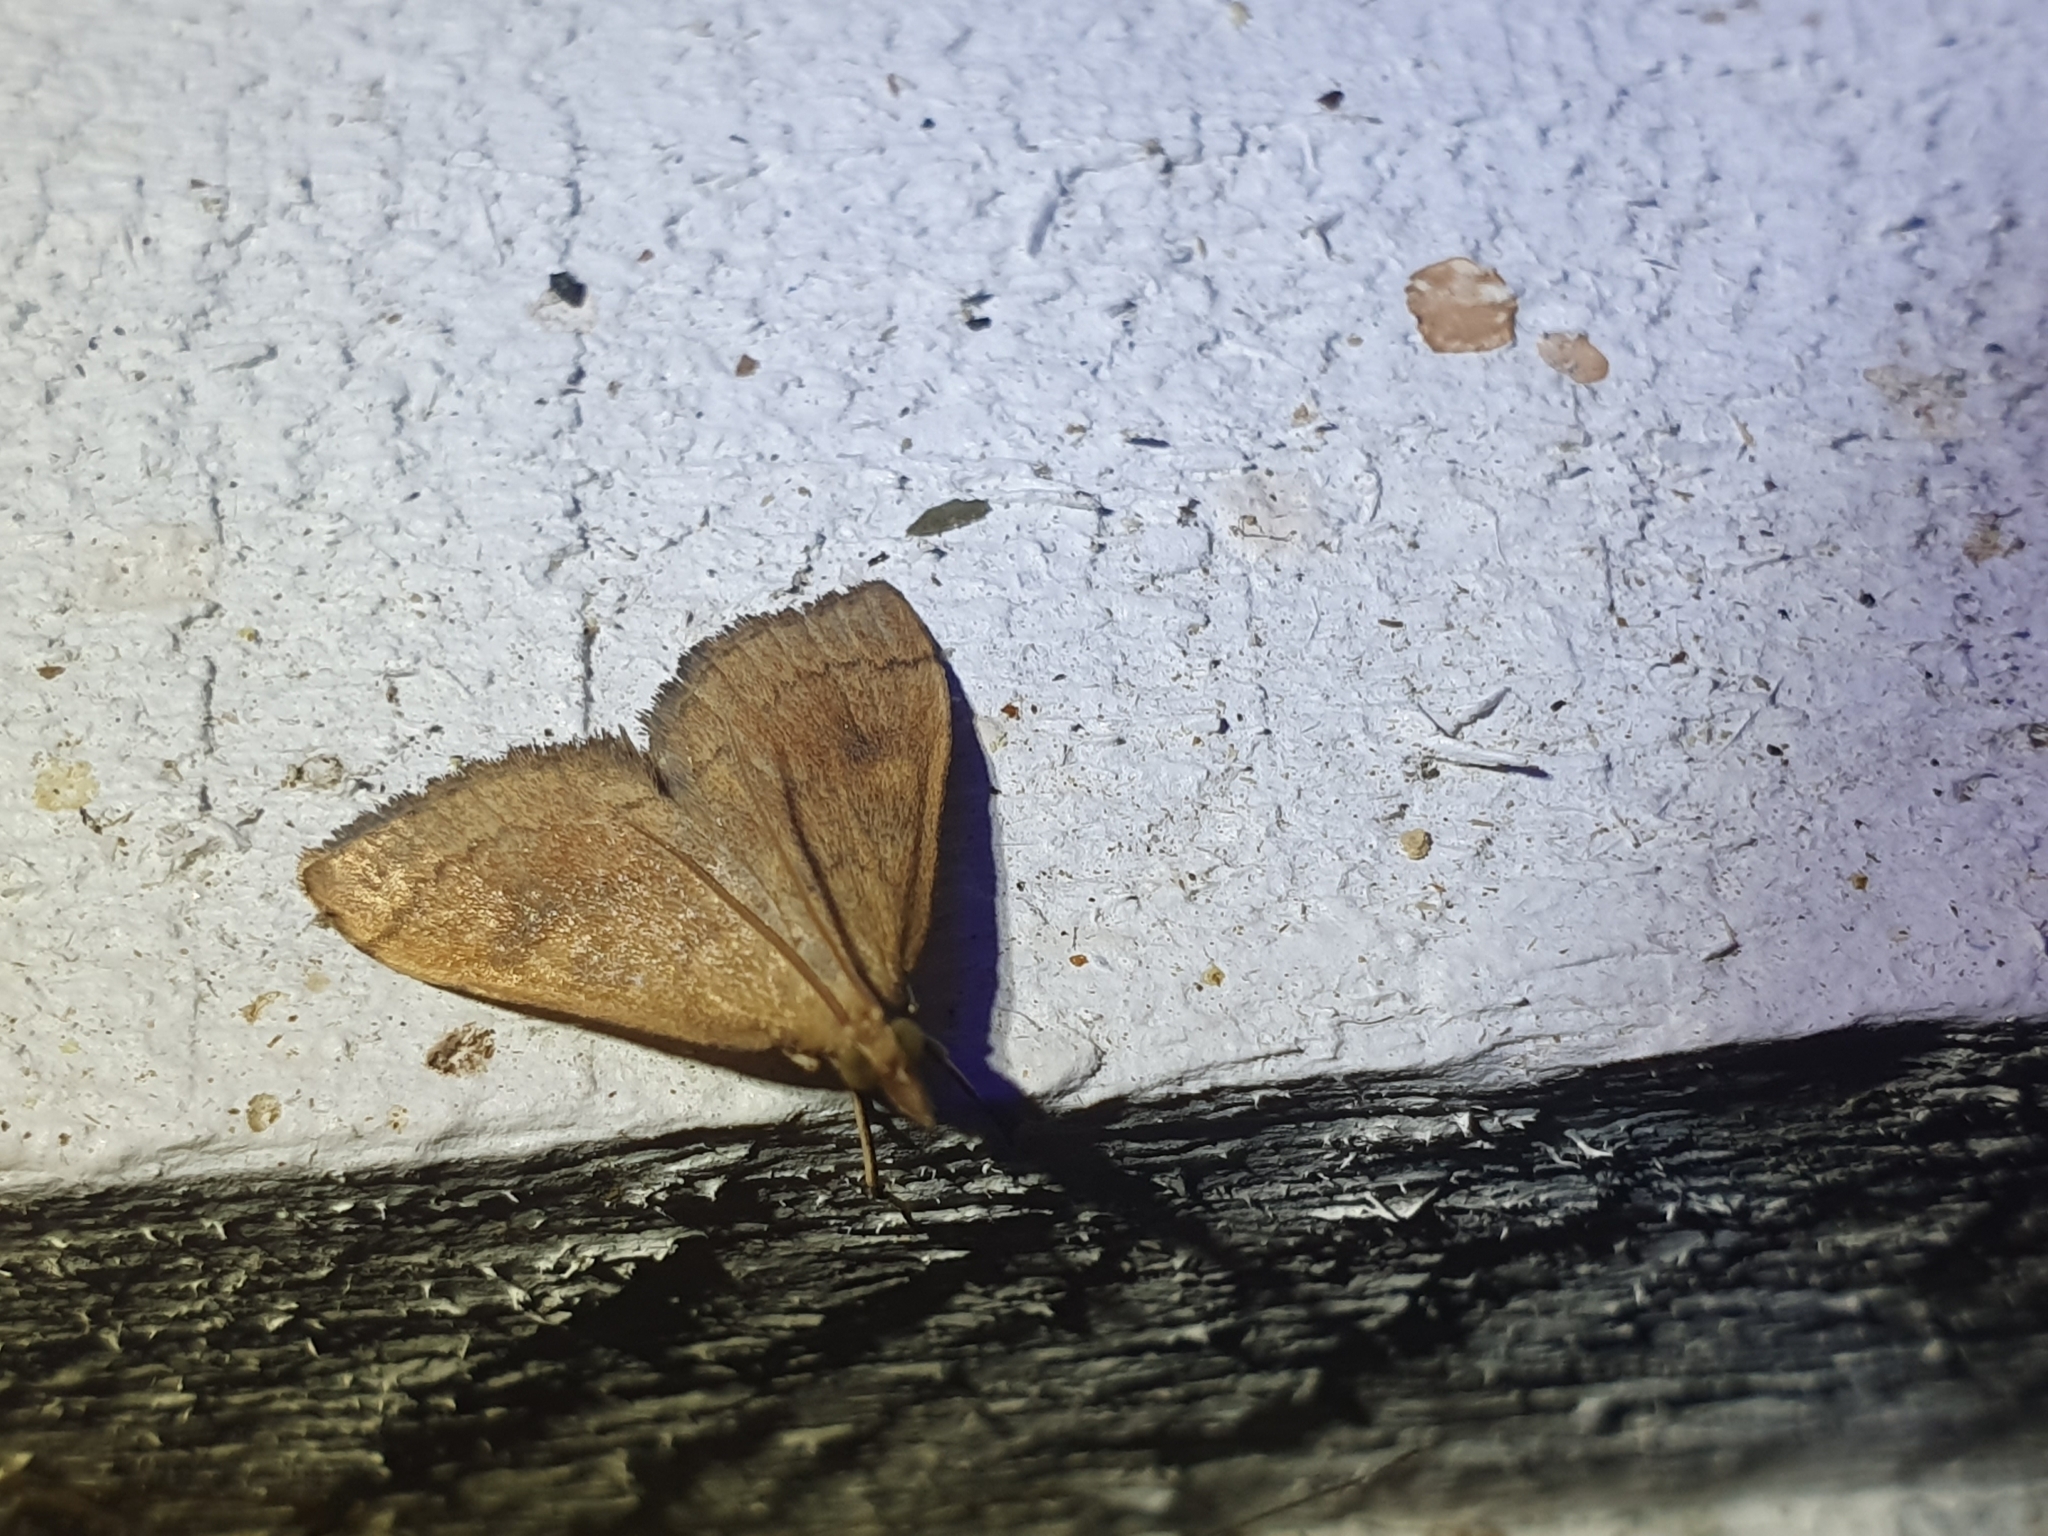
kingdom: Animalia
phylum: Arthropoda
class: Insecta
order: Lepidoptera
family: Crambidae
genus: Udea
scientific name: Udea Mnesictena flavidalis
